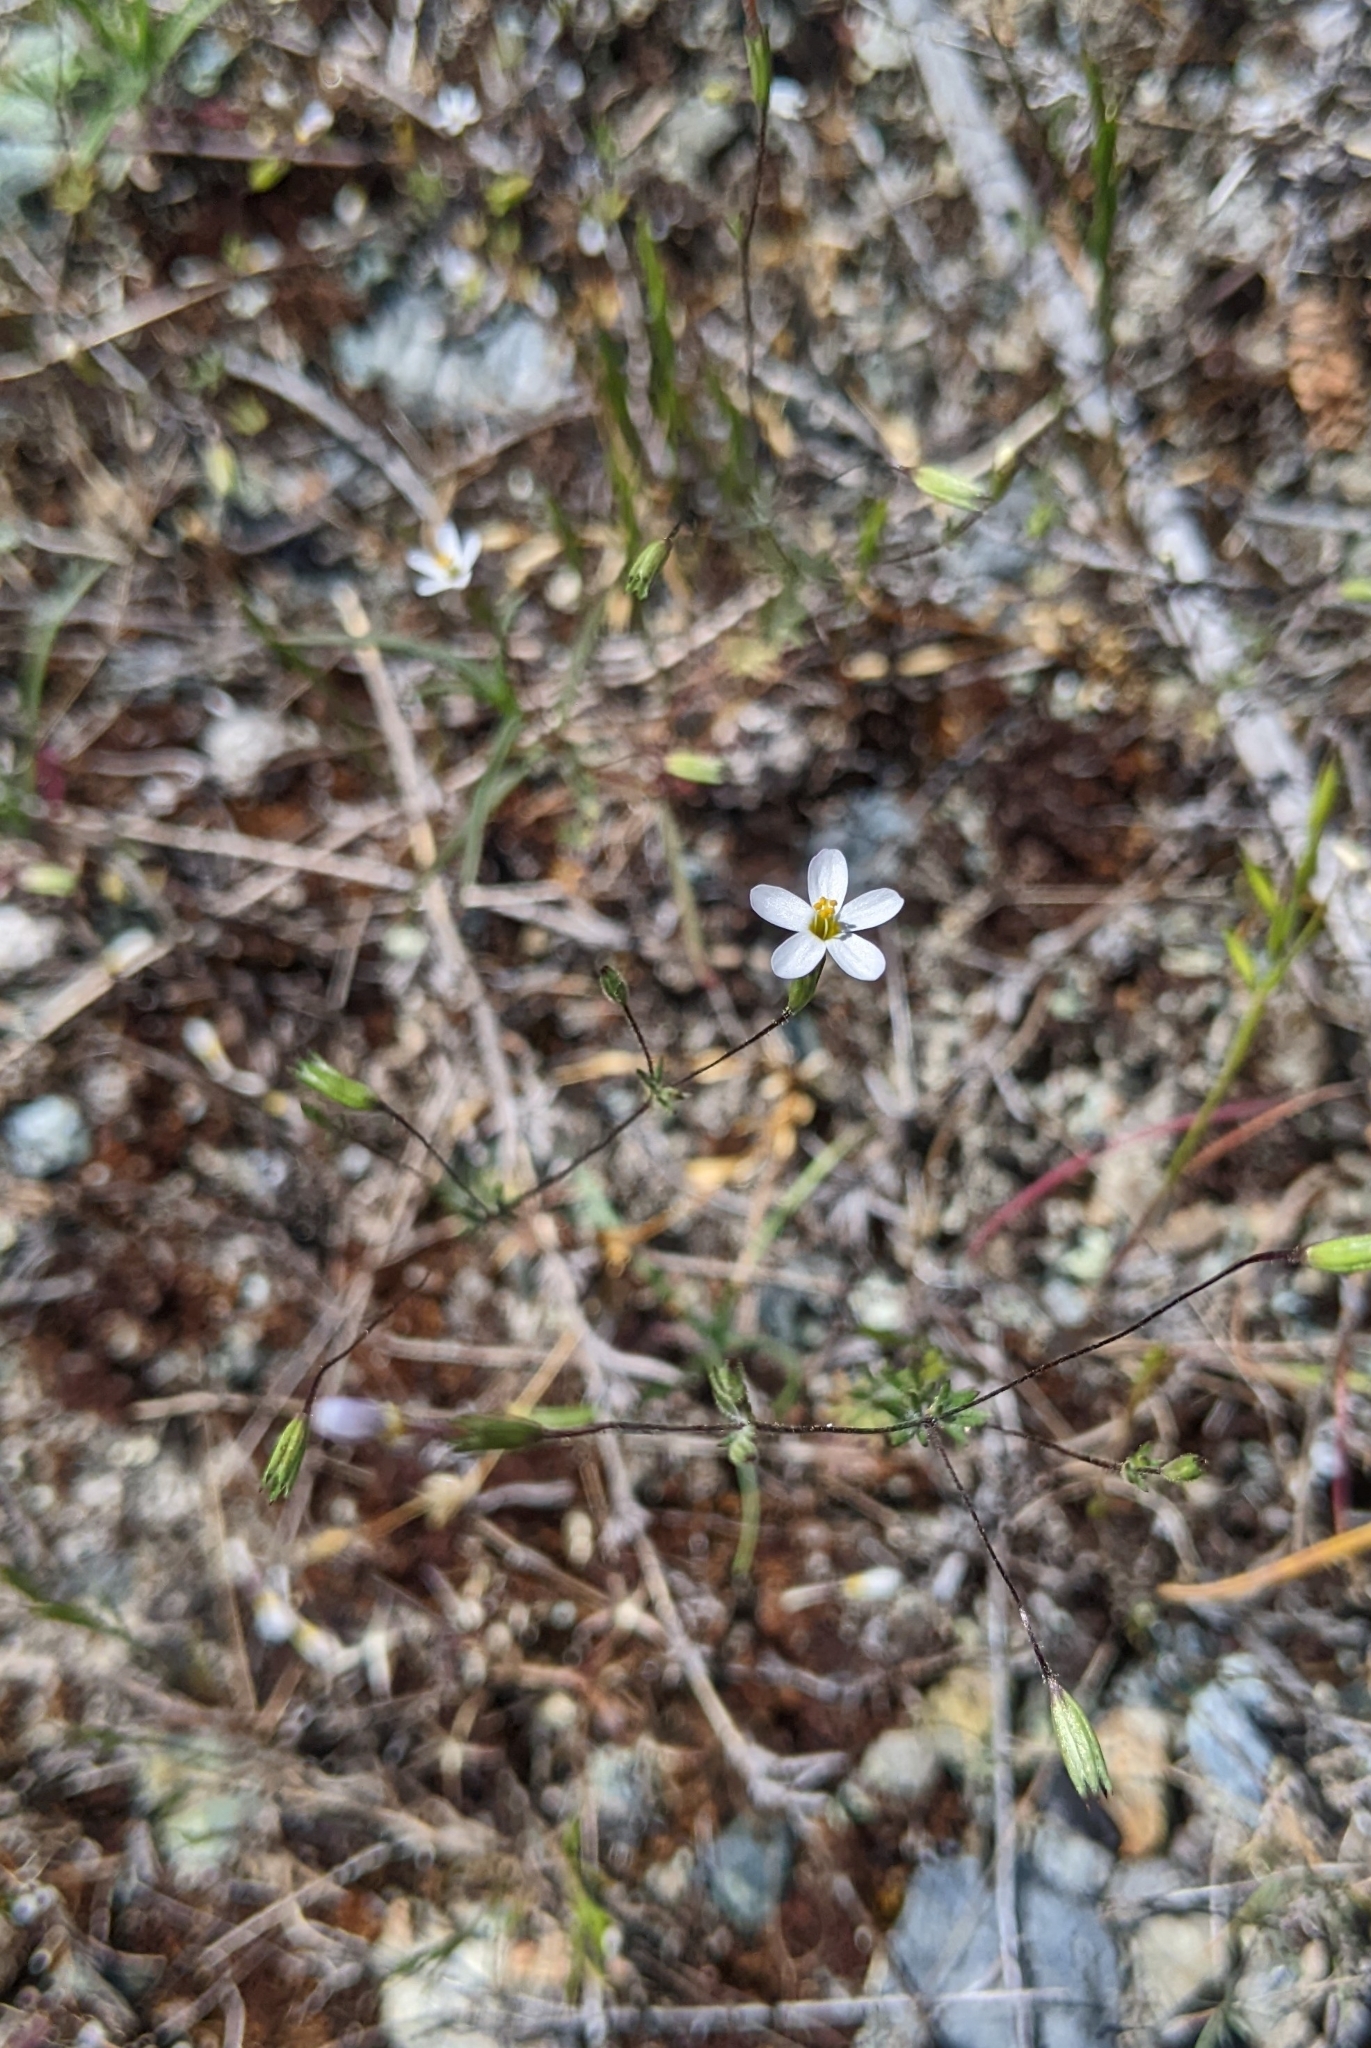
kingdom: Plantae
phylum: Tracheophyta
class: Magnoliopsida
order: Ericales
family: Polemoniaceae
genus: Leptosiphon
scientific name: Leptosiphon bolanderi
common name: Bolander's linanthus
